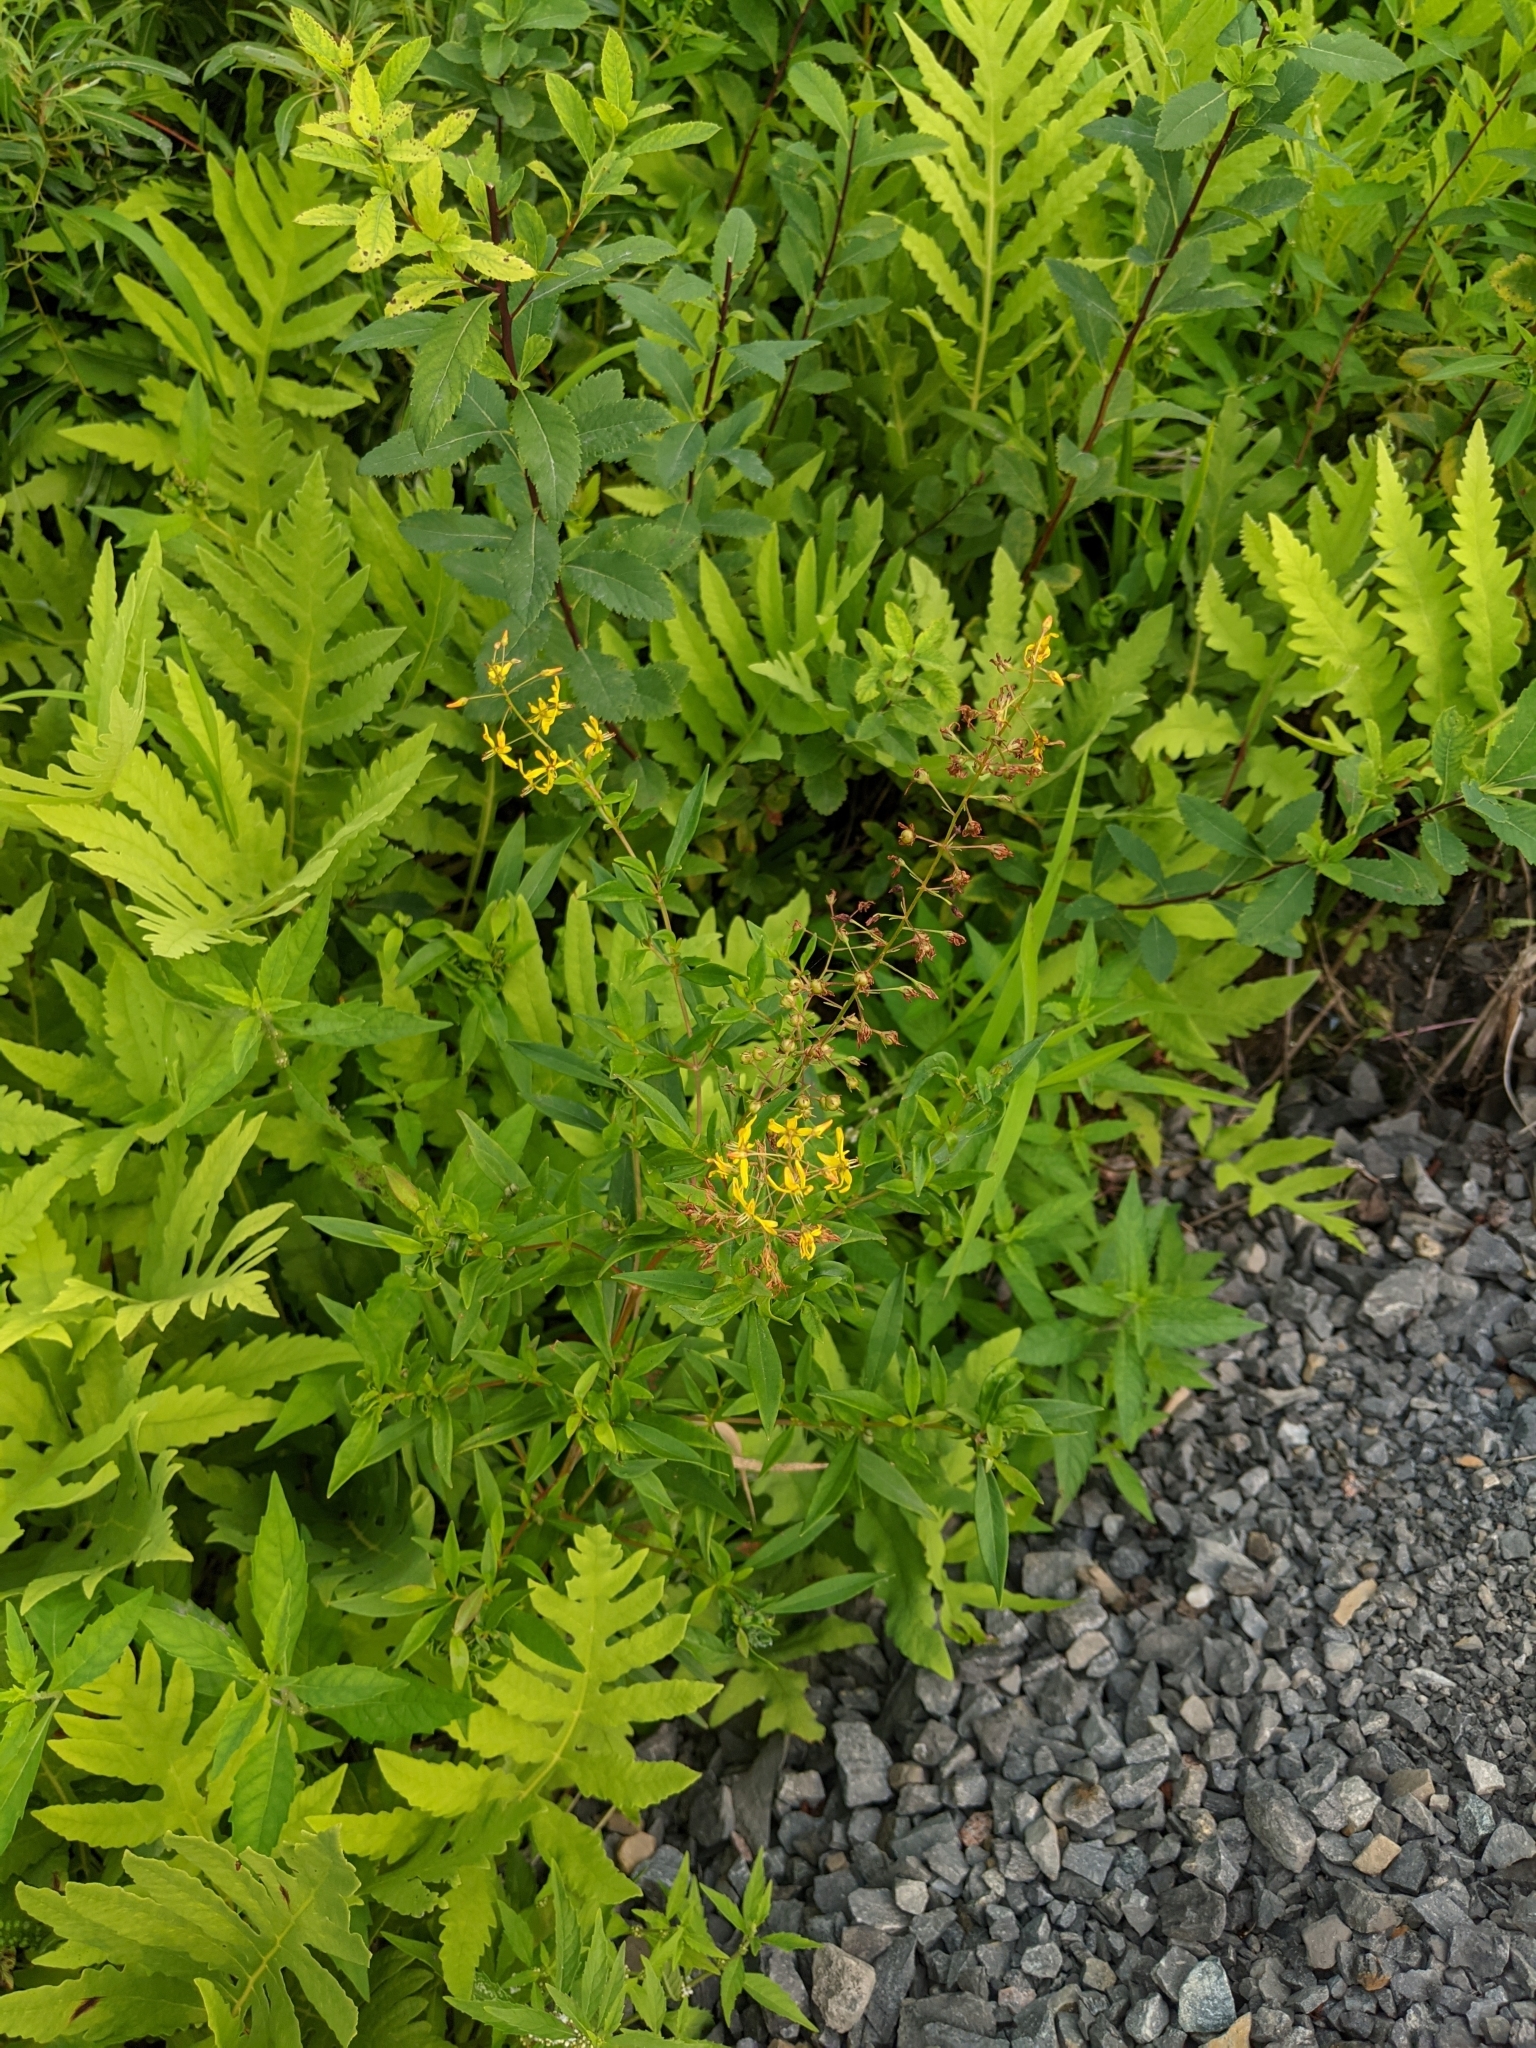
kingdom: Plantae
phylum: Tracheophyta
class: Magnoliopsida
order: Ericales
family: Primulaceae
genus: Lysimachia
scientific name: Lysimachia terrestris
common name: Lake loosestrife
